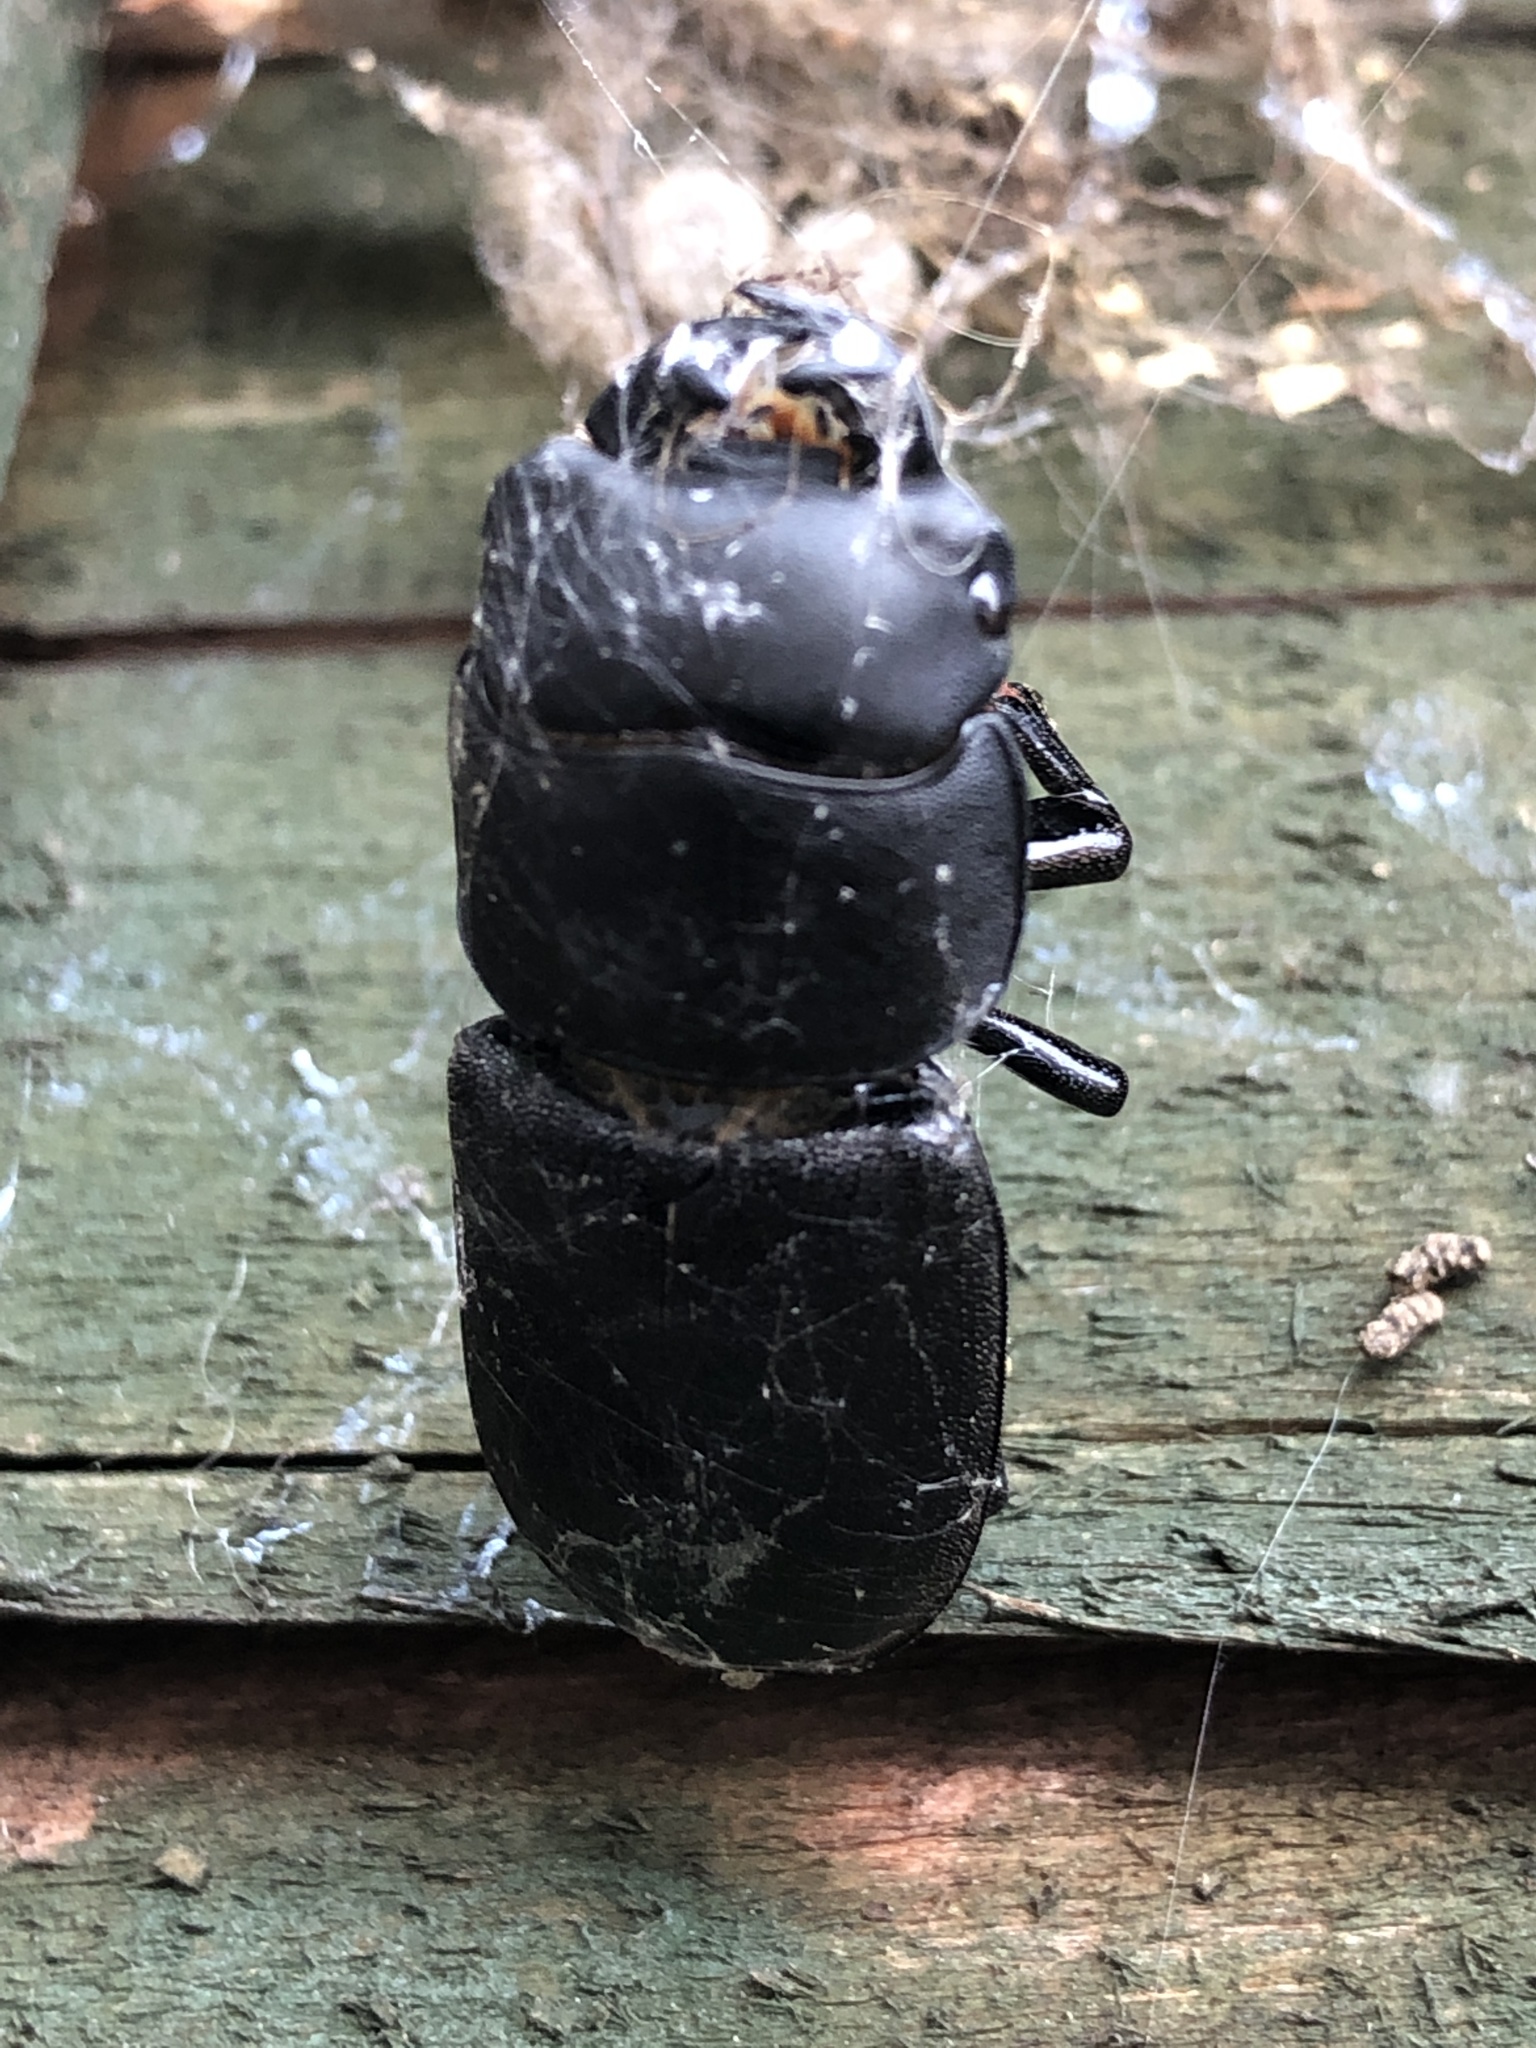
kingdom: Animalia
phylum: Arthropoda
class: Insecta
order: Coleoptera
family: Lucanidae
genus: Dorcus
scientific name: Dorcus parallelipipedus
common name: Lesser stag beetle
